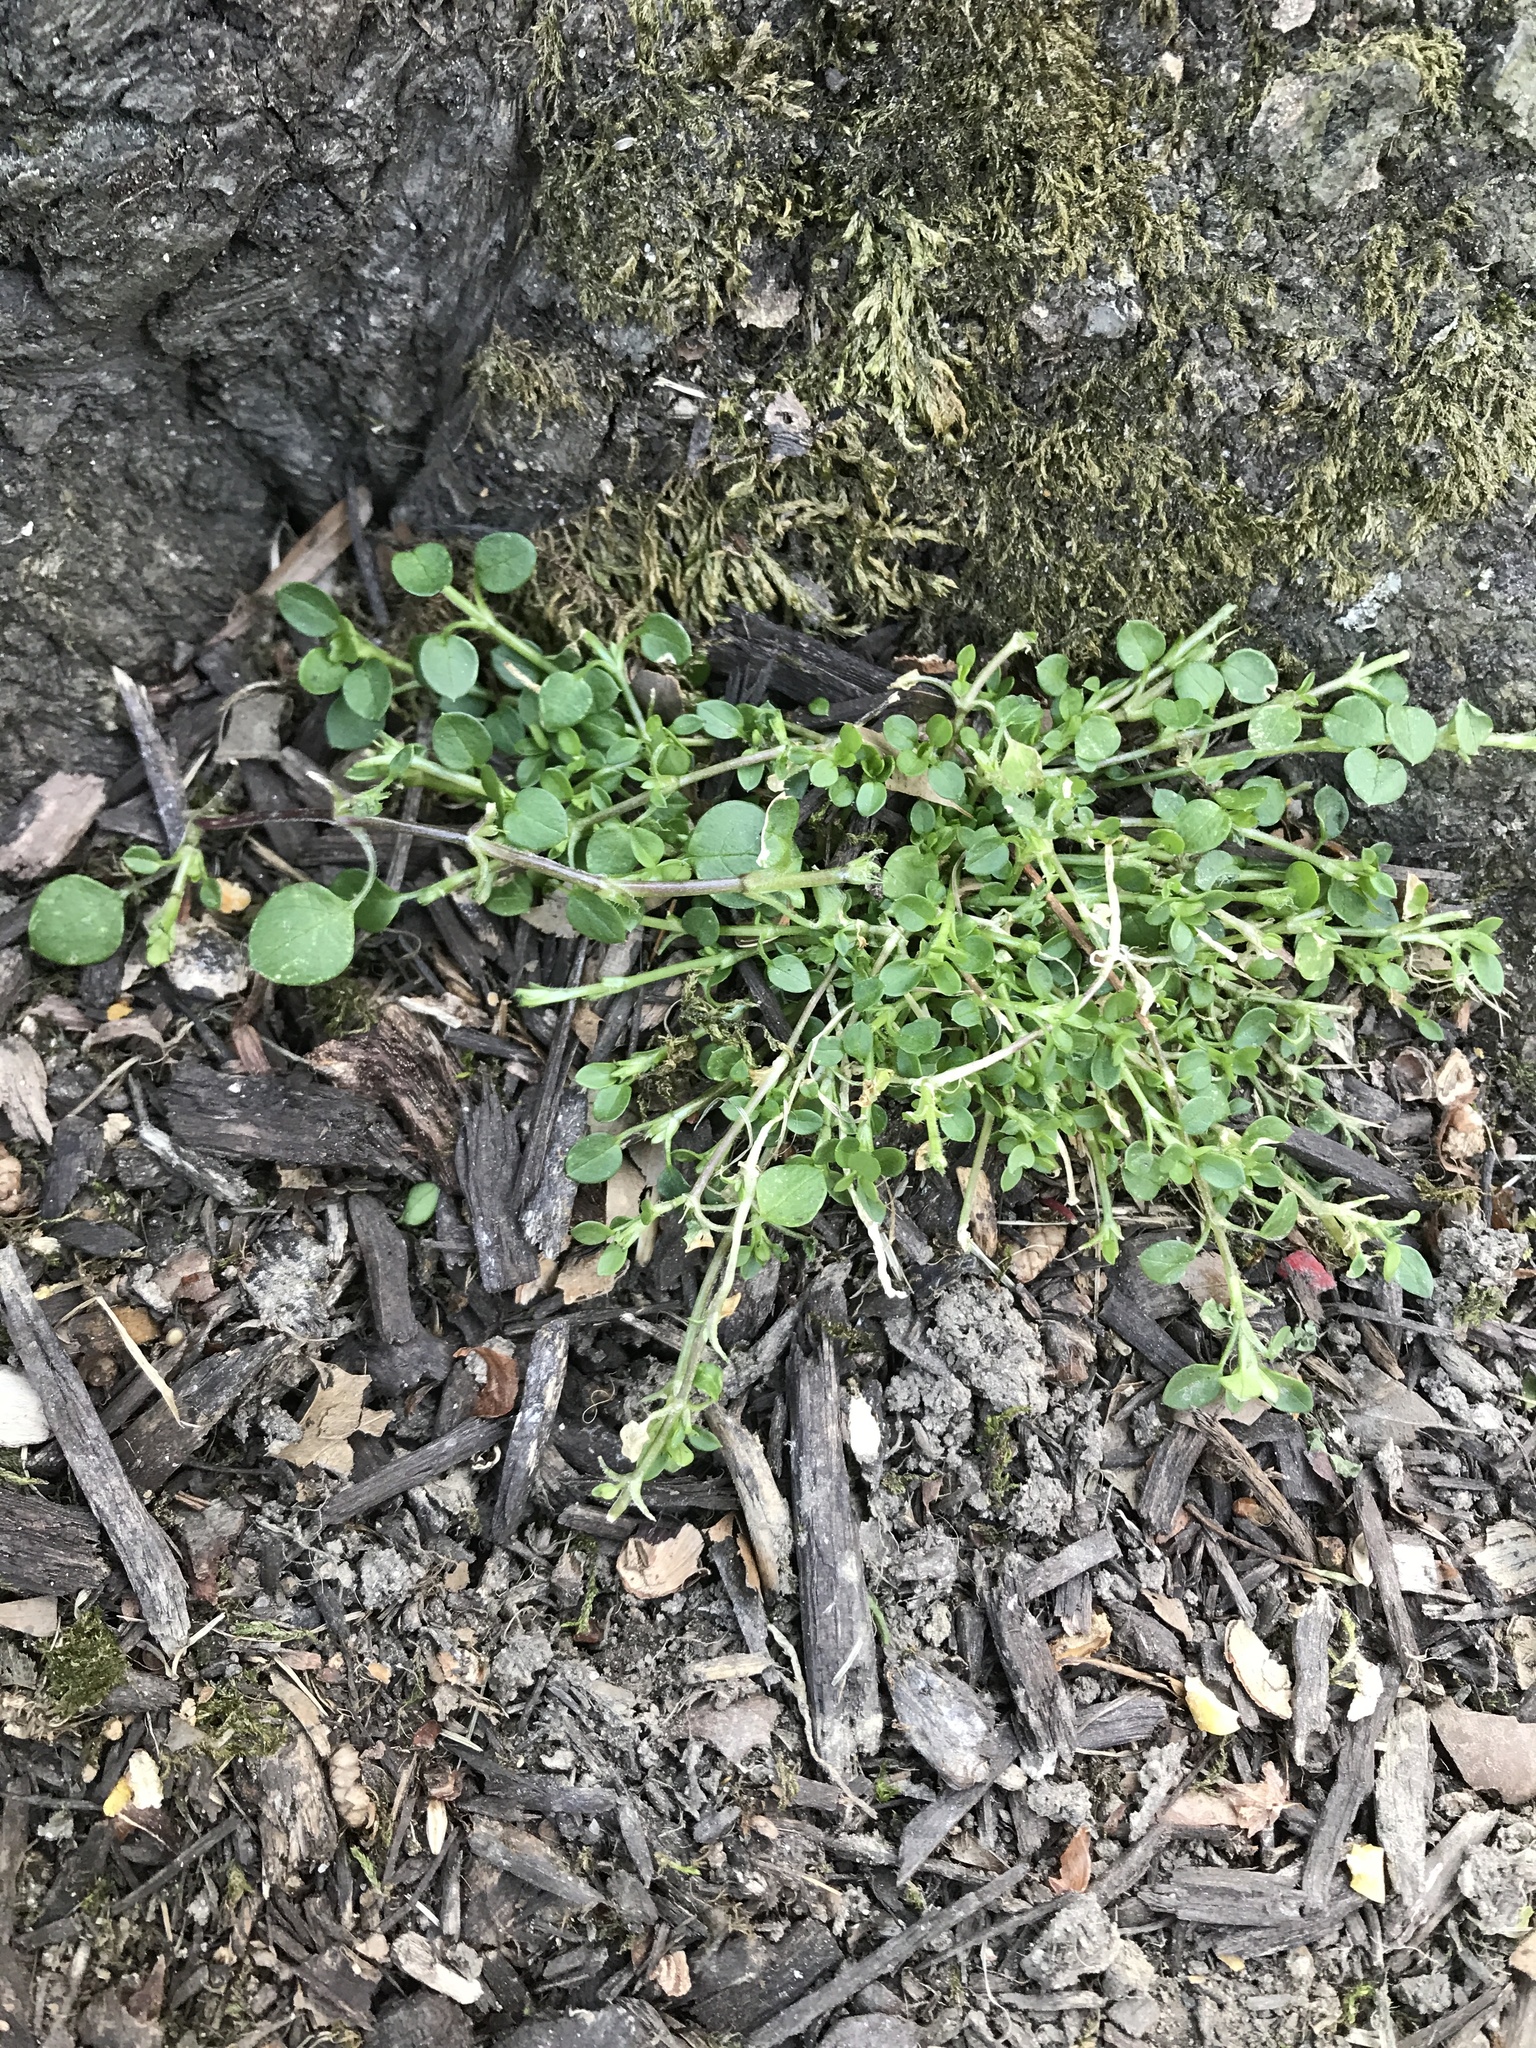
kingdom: Plantae
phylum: Tracheophyta
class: Magnoliopsida
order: Caryophyllales
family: Caryophyllaceae
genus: Stellaria
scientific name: Stellaria media
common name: Common chickweed
